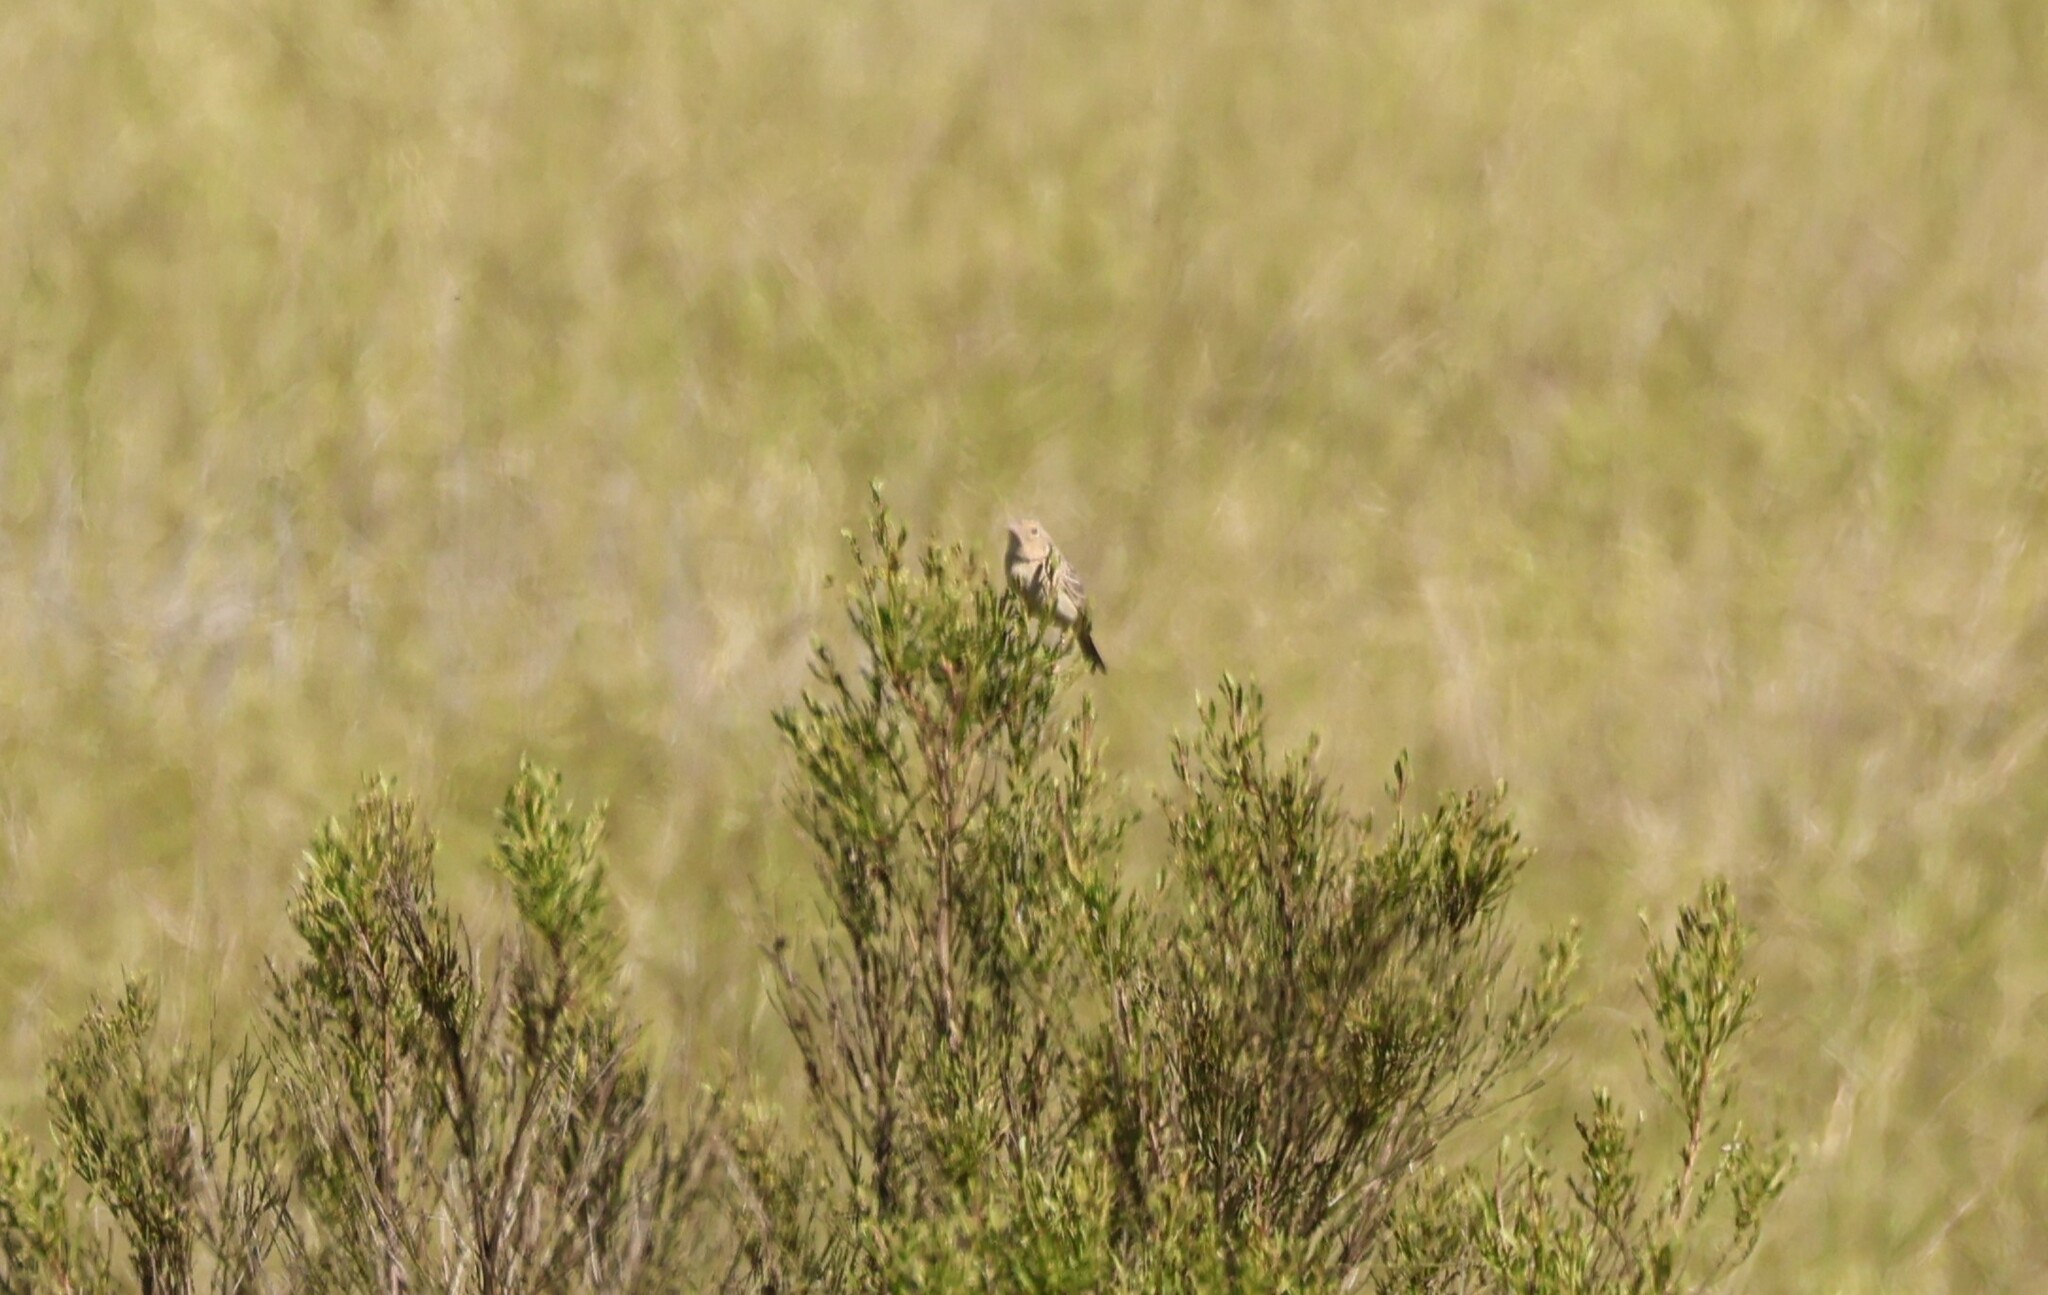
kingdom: Animalia
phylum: Chordata
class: Aves
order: Passeriformes
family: Passerellidae
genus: Ammodramus
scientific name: Ammodramus savannarum
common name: Grasshopper sparrow
